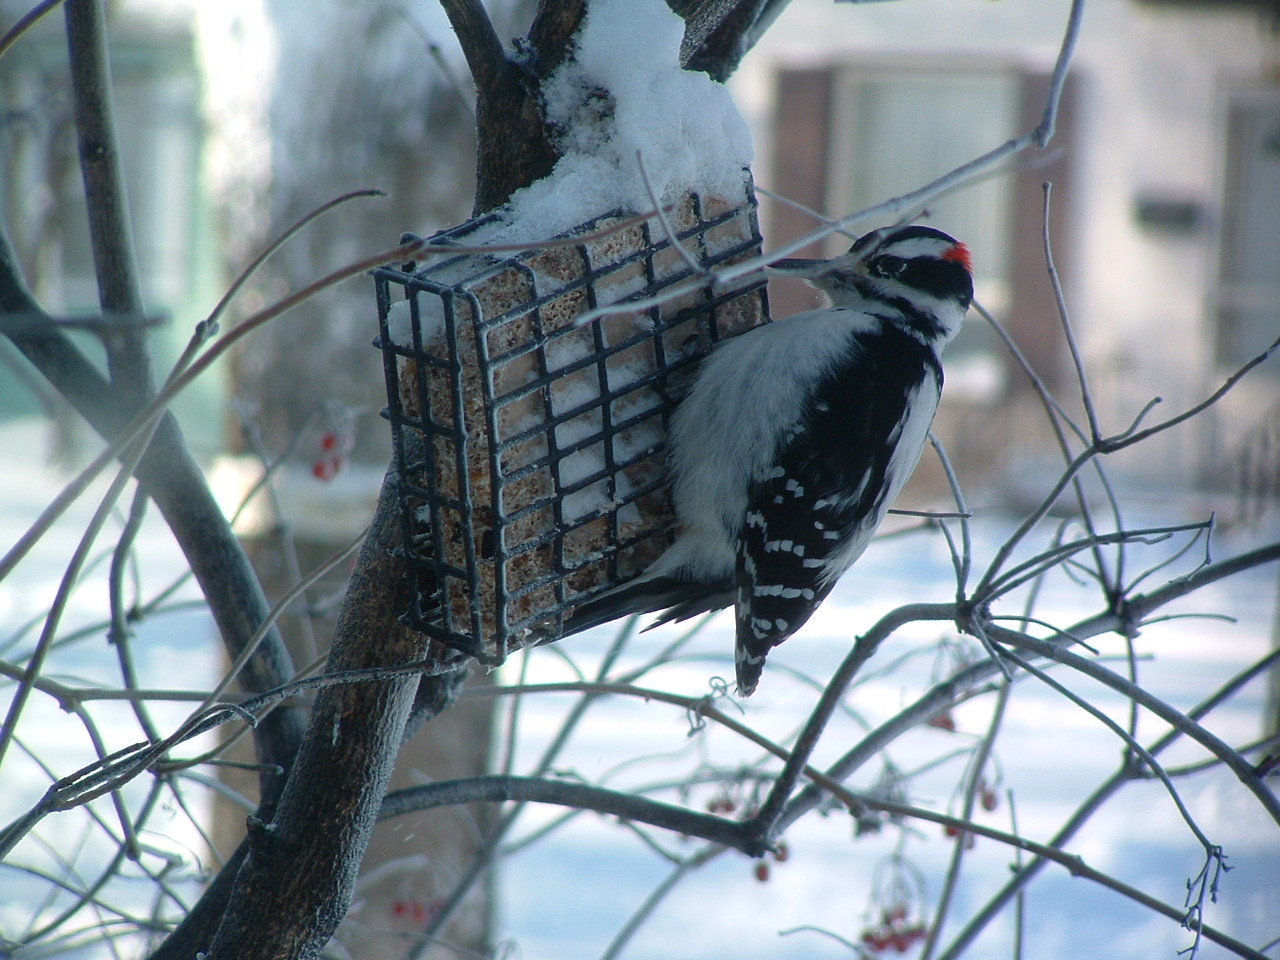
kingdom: Animalia
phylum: Chordata
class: Aves
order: Piciformes
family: Picidae
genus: Leuconotopicus
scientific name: Leuconotopicus villosus
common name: Hairy woodpecker
